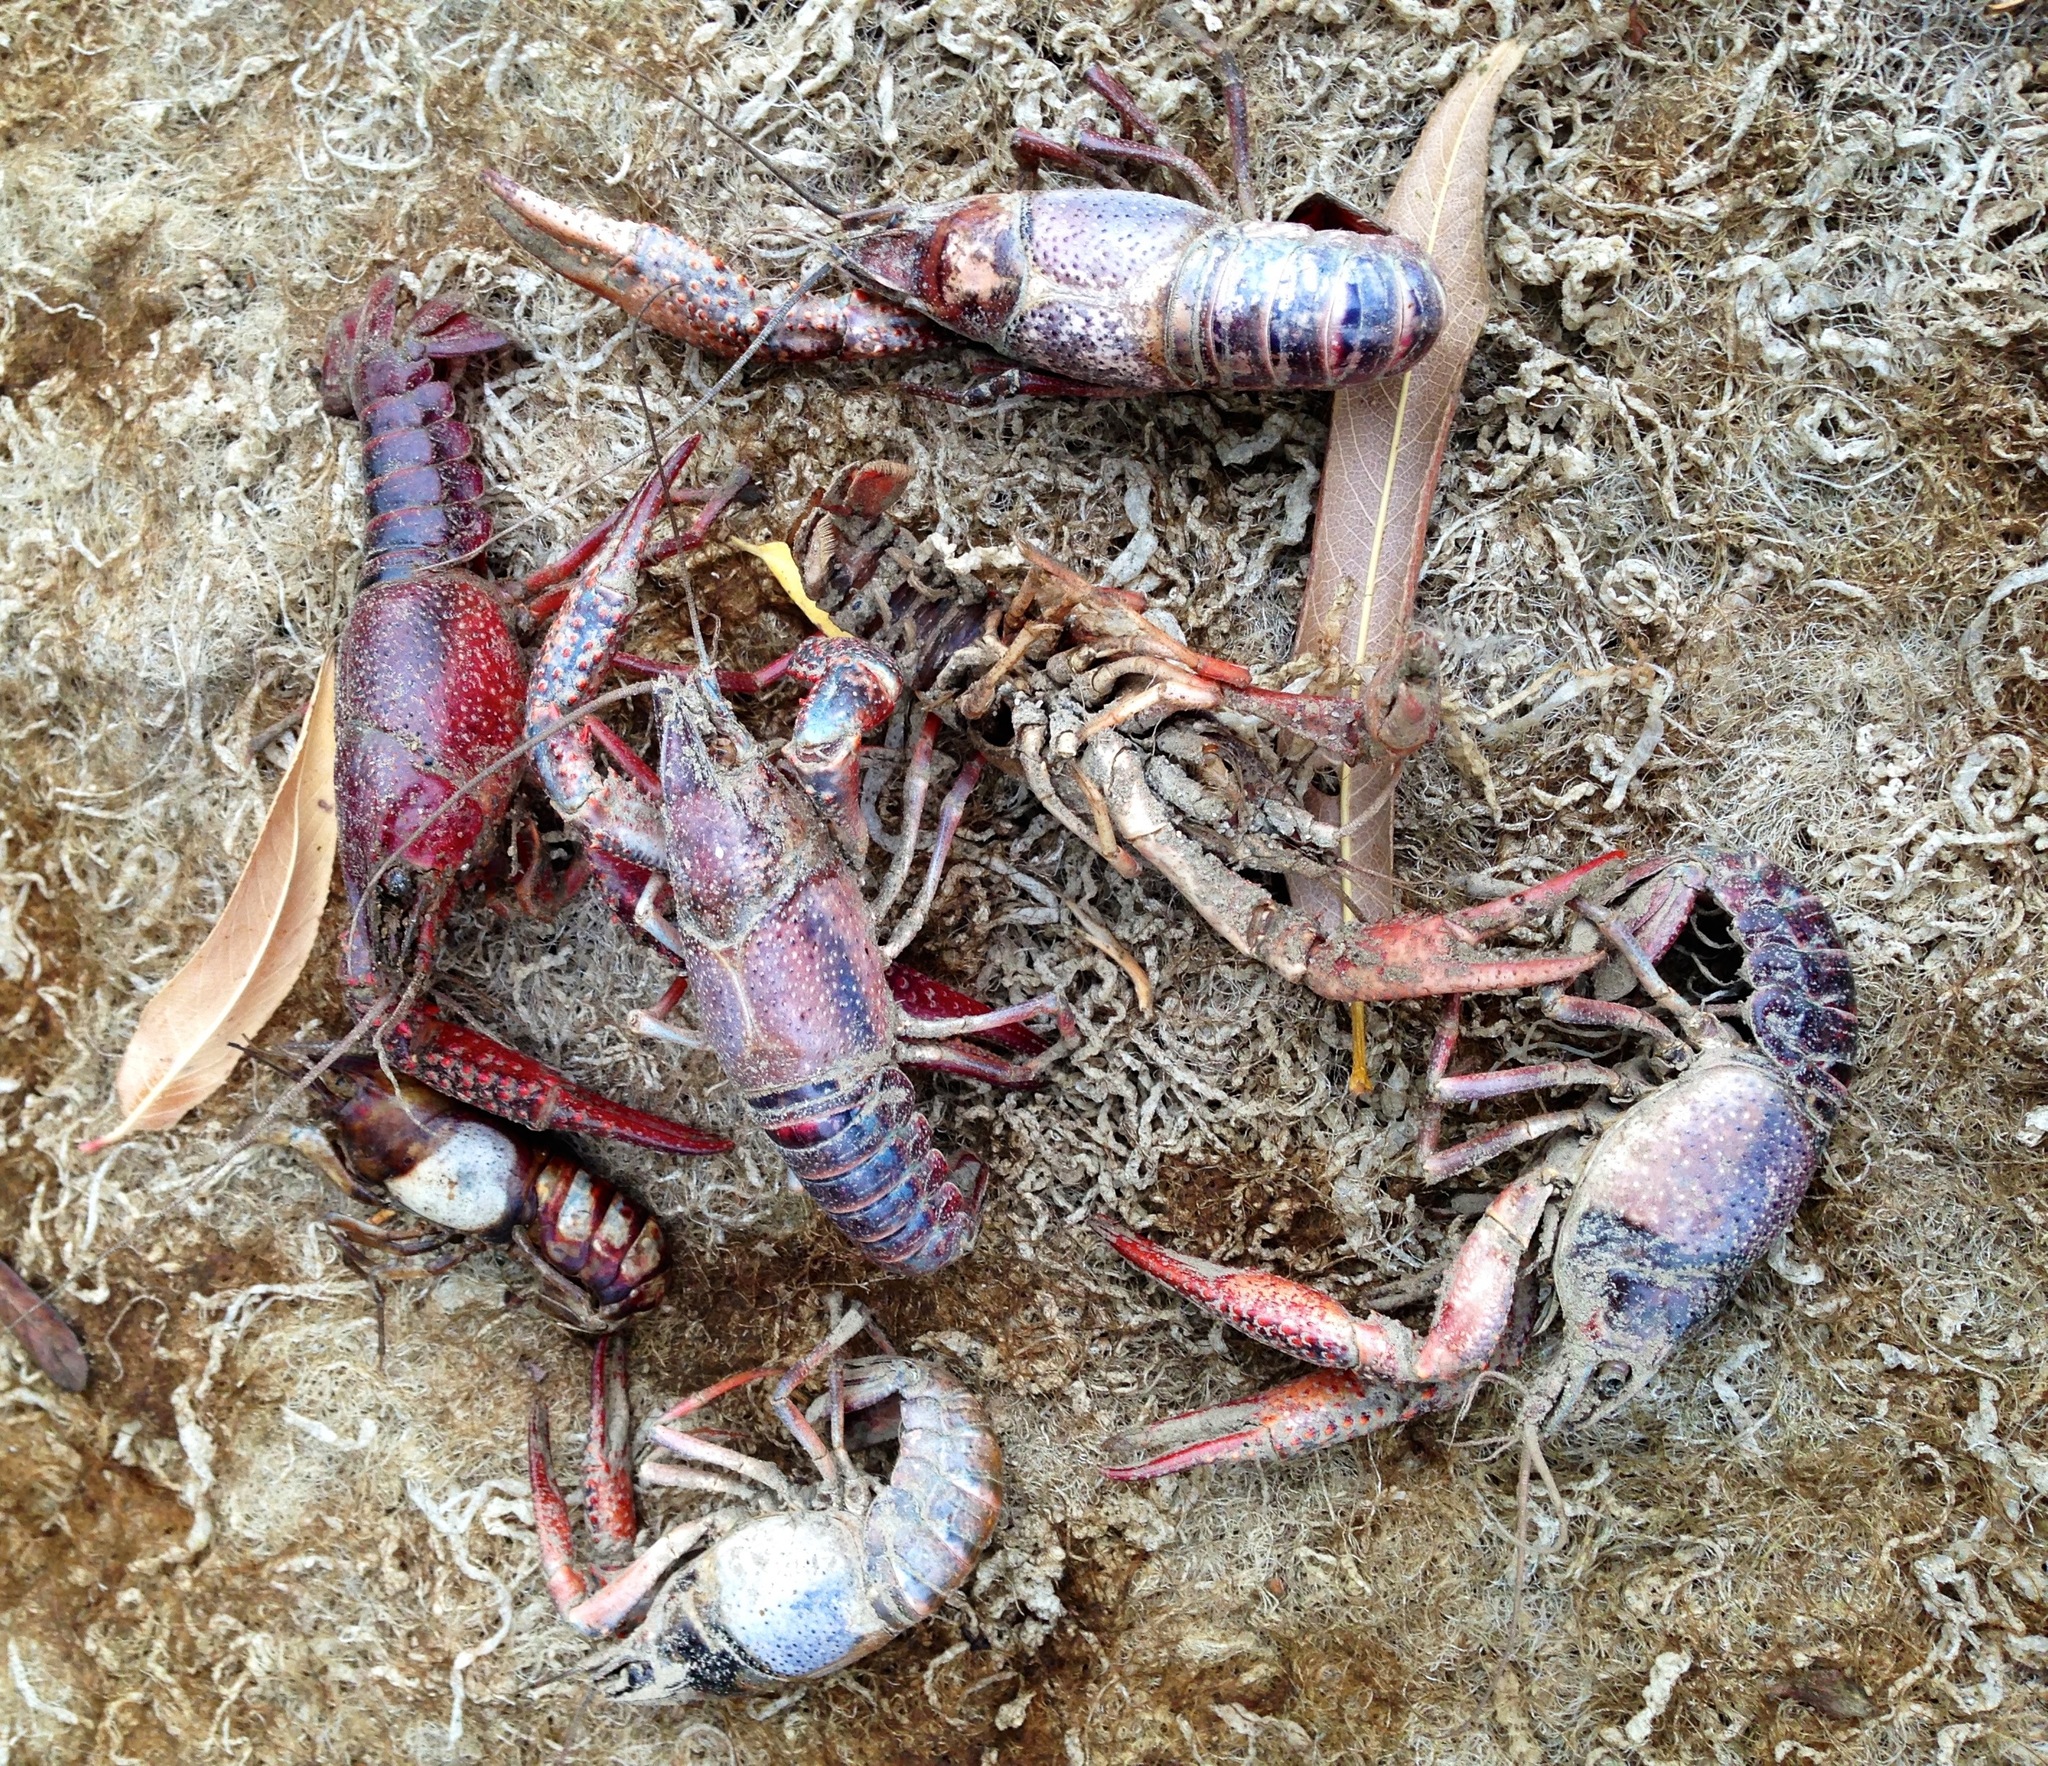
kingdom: Animalia
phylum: Arthropoda
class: Malacostraca
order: Decapoda
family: Cambaridae
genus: Procambarus
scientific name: Procambarus clarkii
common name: Red swamp crayfish
